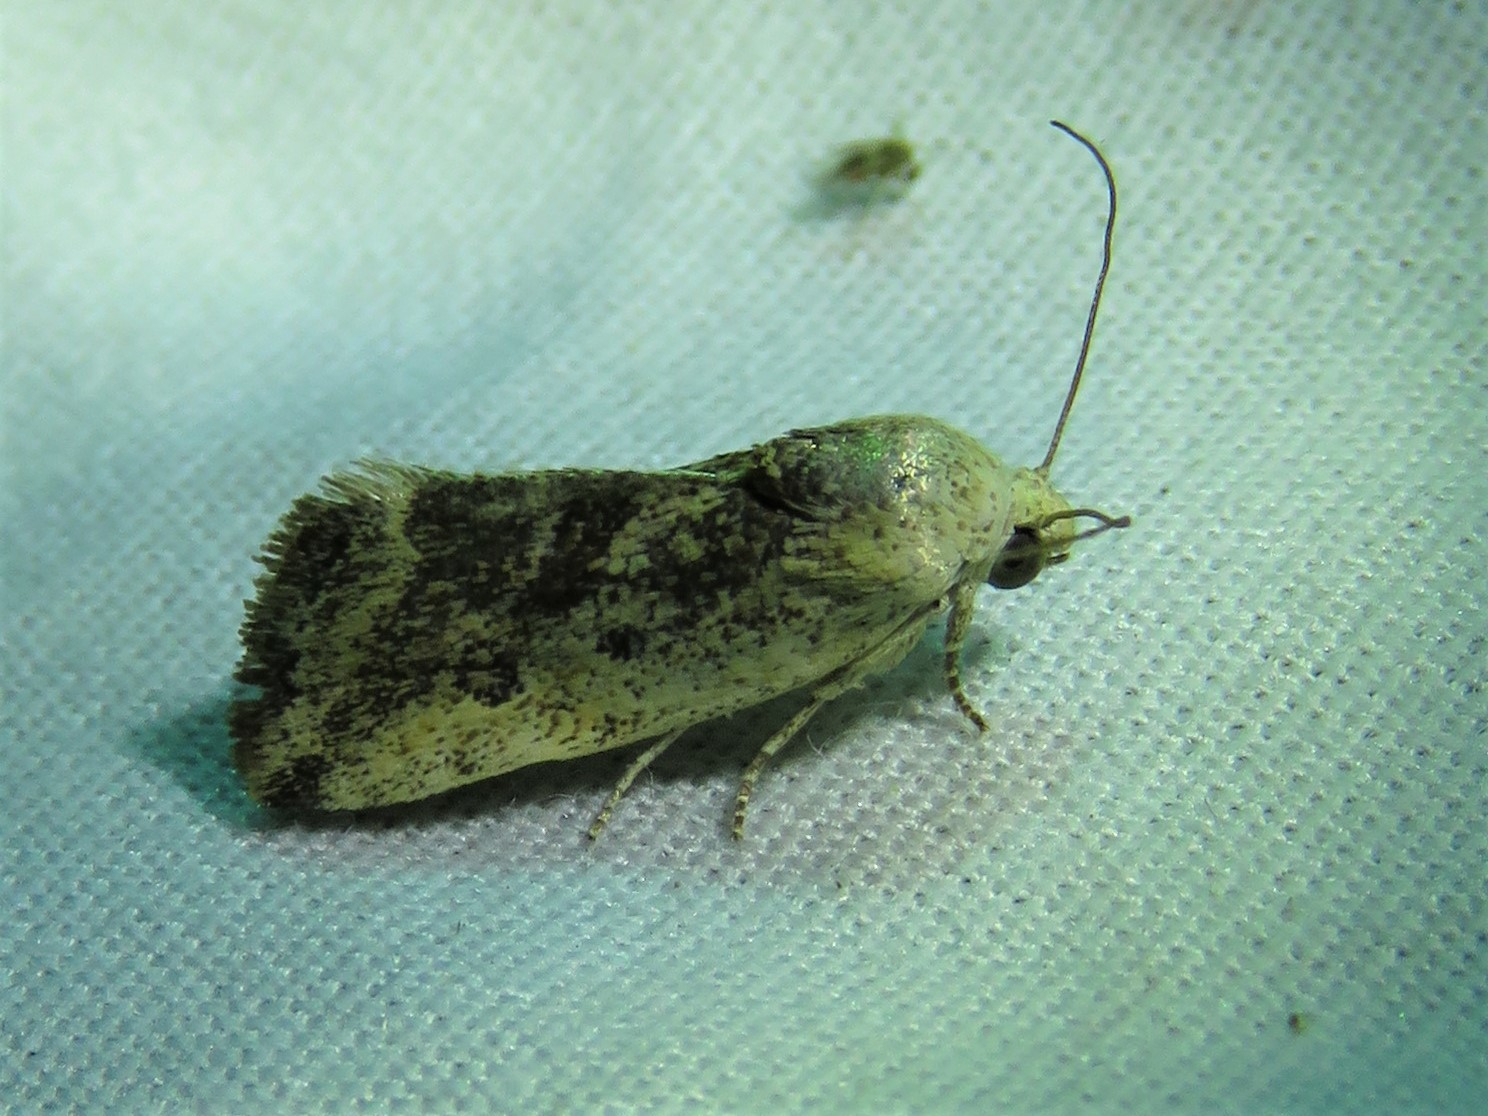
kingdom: Animalia
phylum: Arthropoda
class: Insecta
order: Lepidoptera
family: Noctuidae
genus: Acontia
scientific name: Acontia fasciatella
